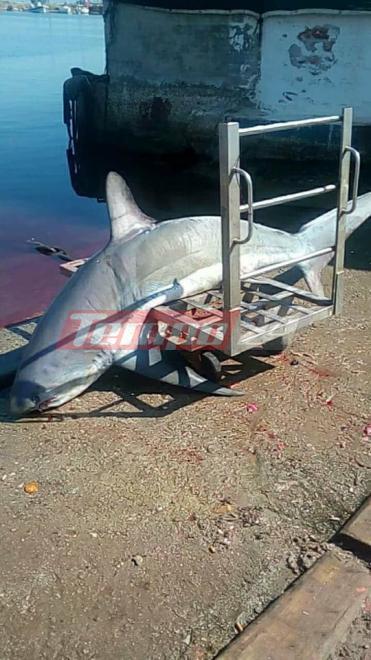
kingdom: Animalia
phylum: Chordata
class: Elasmobranchii
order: Lamniformes
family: Alopiidae
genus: Alopias
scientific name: Alopias vulpinus
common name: Thresher shark
